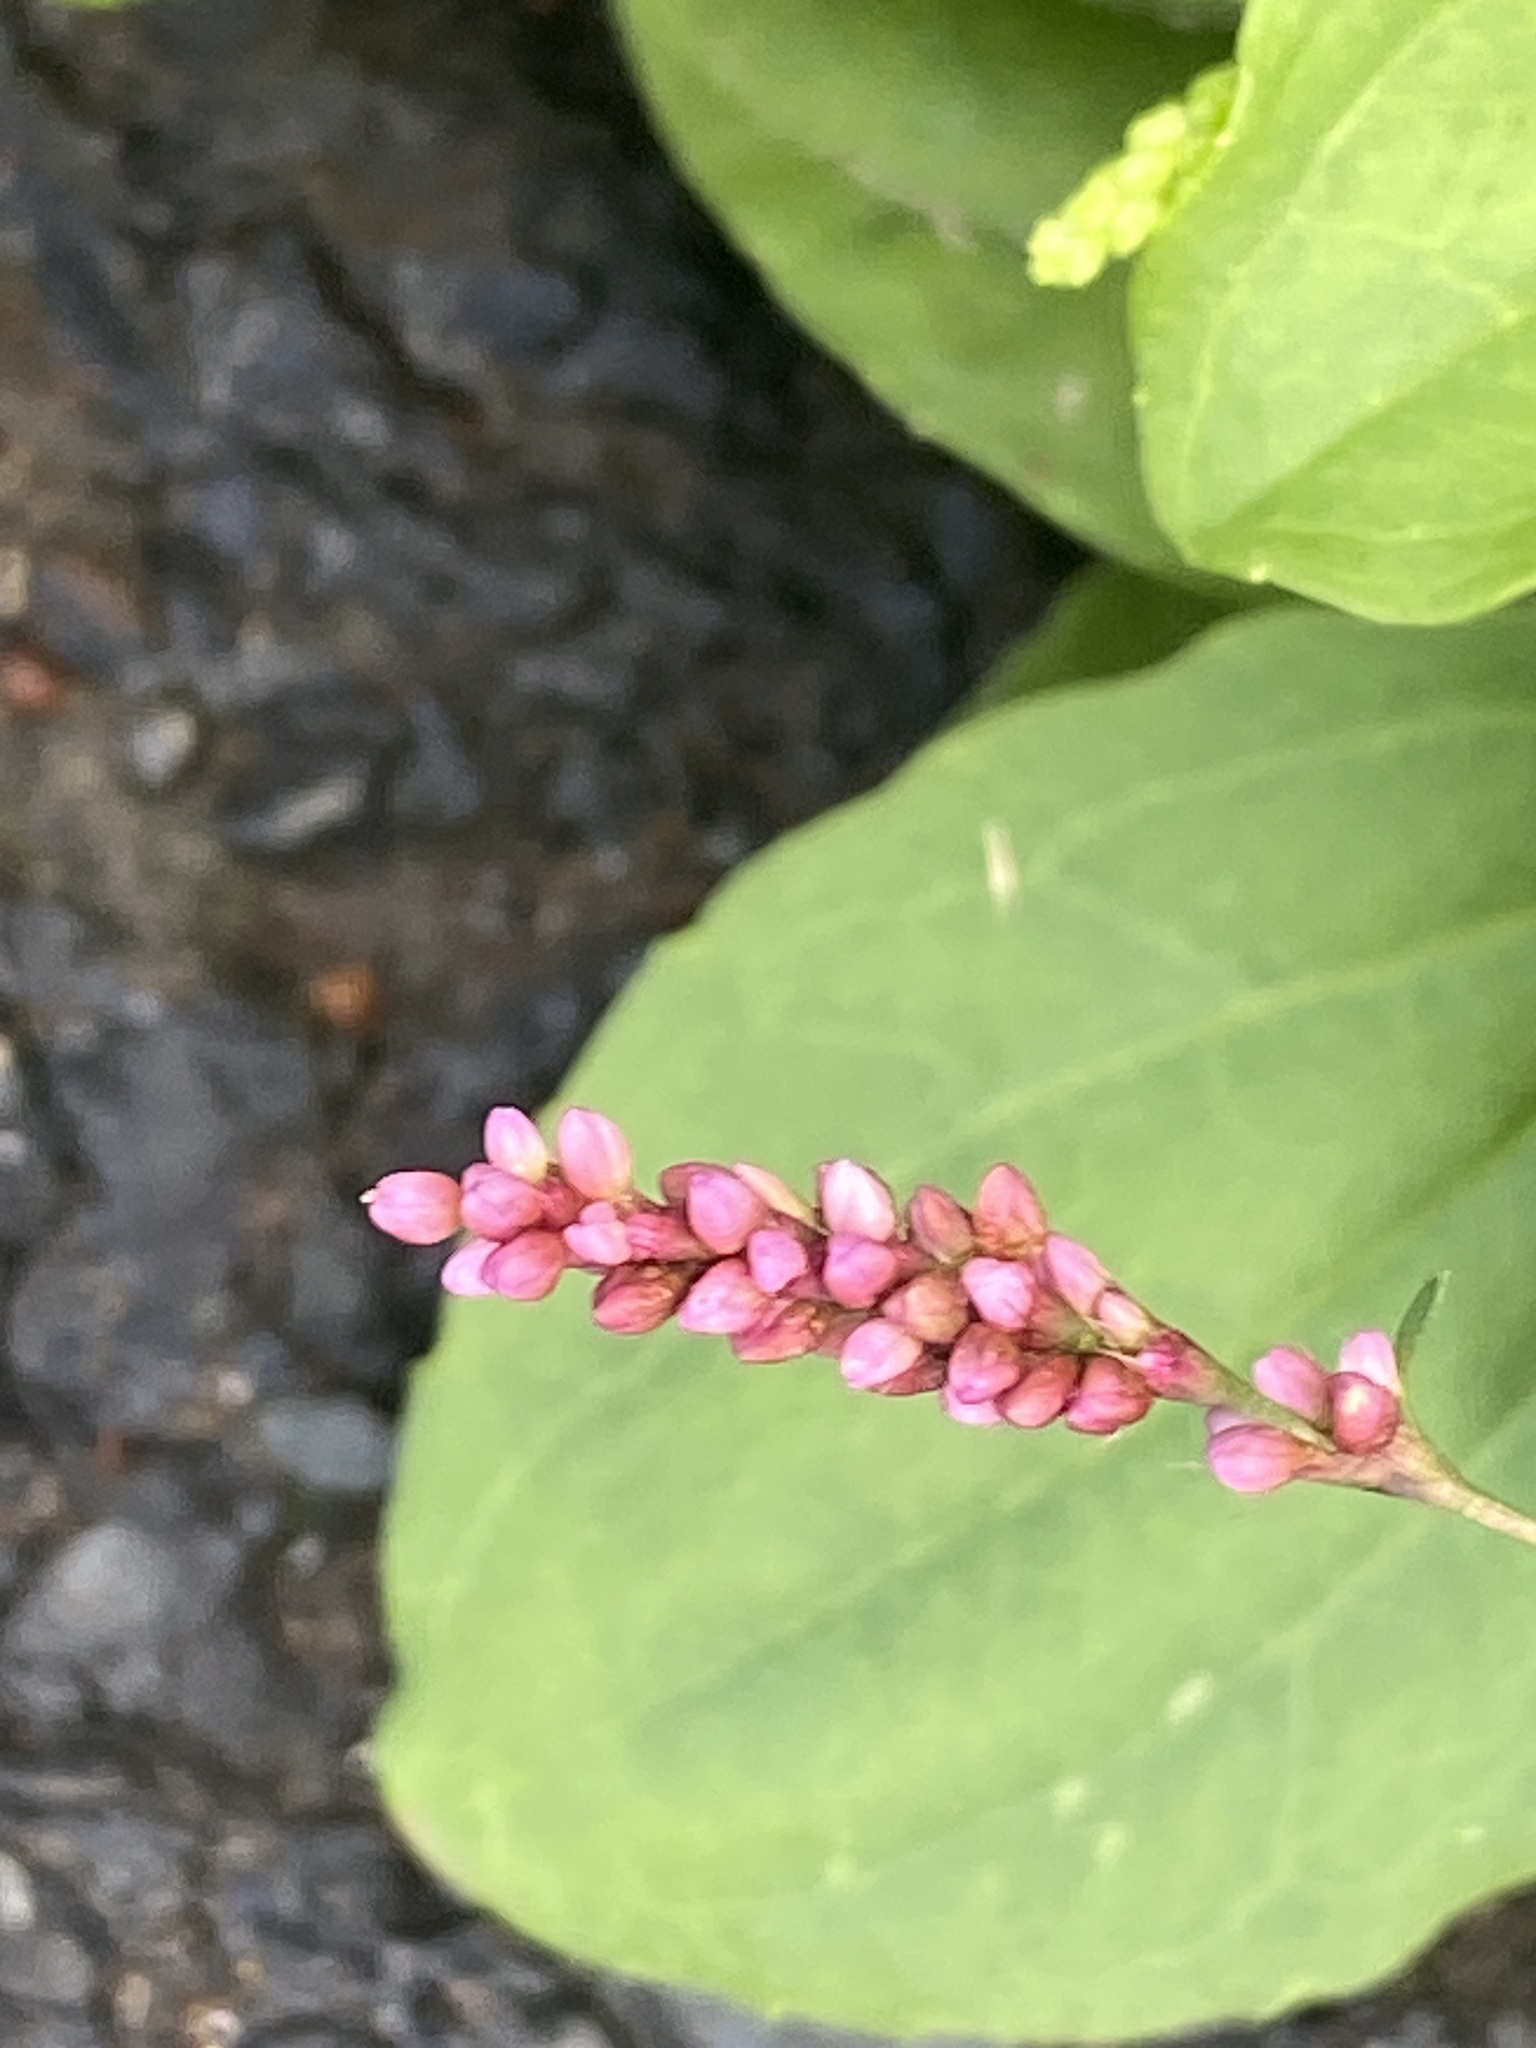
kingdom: Plantae
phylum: Tracheophyta
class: Magnoliopsida
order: Caryophyllales
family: Polygonaceae
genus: Persicaria
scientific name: Persicaria longiseta
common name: Bristly lady's-thumb
